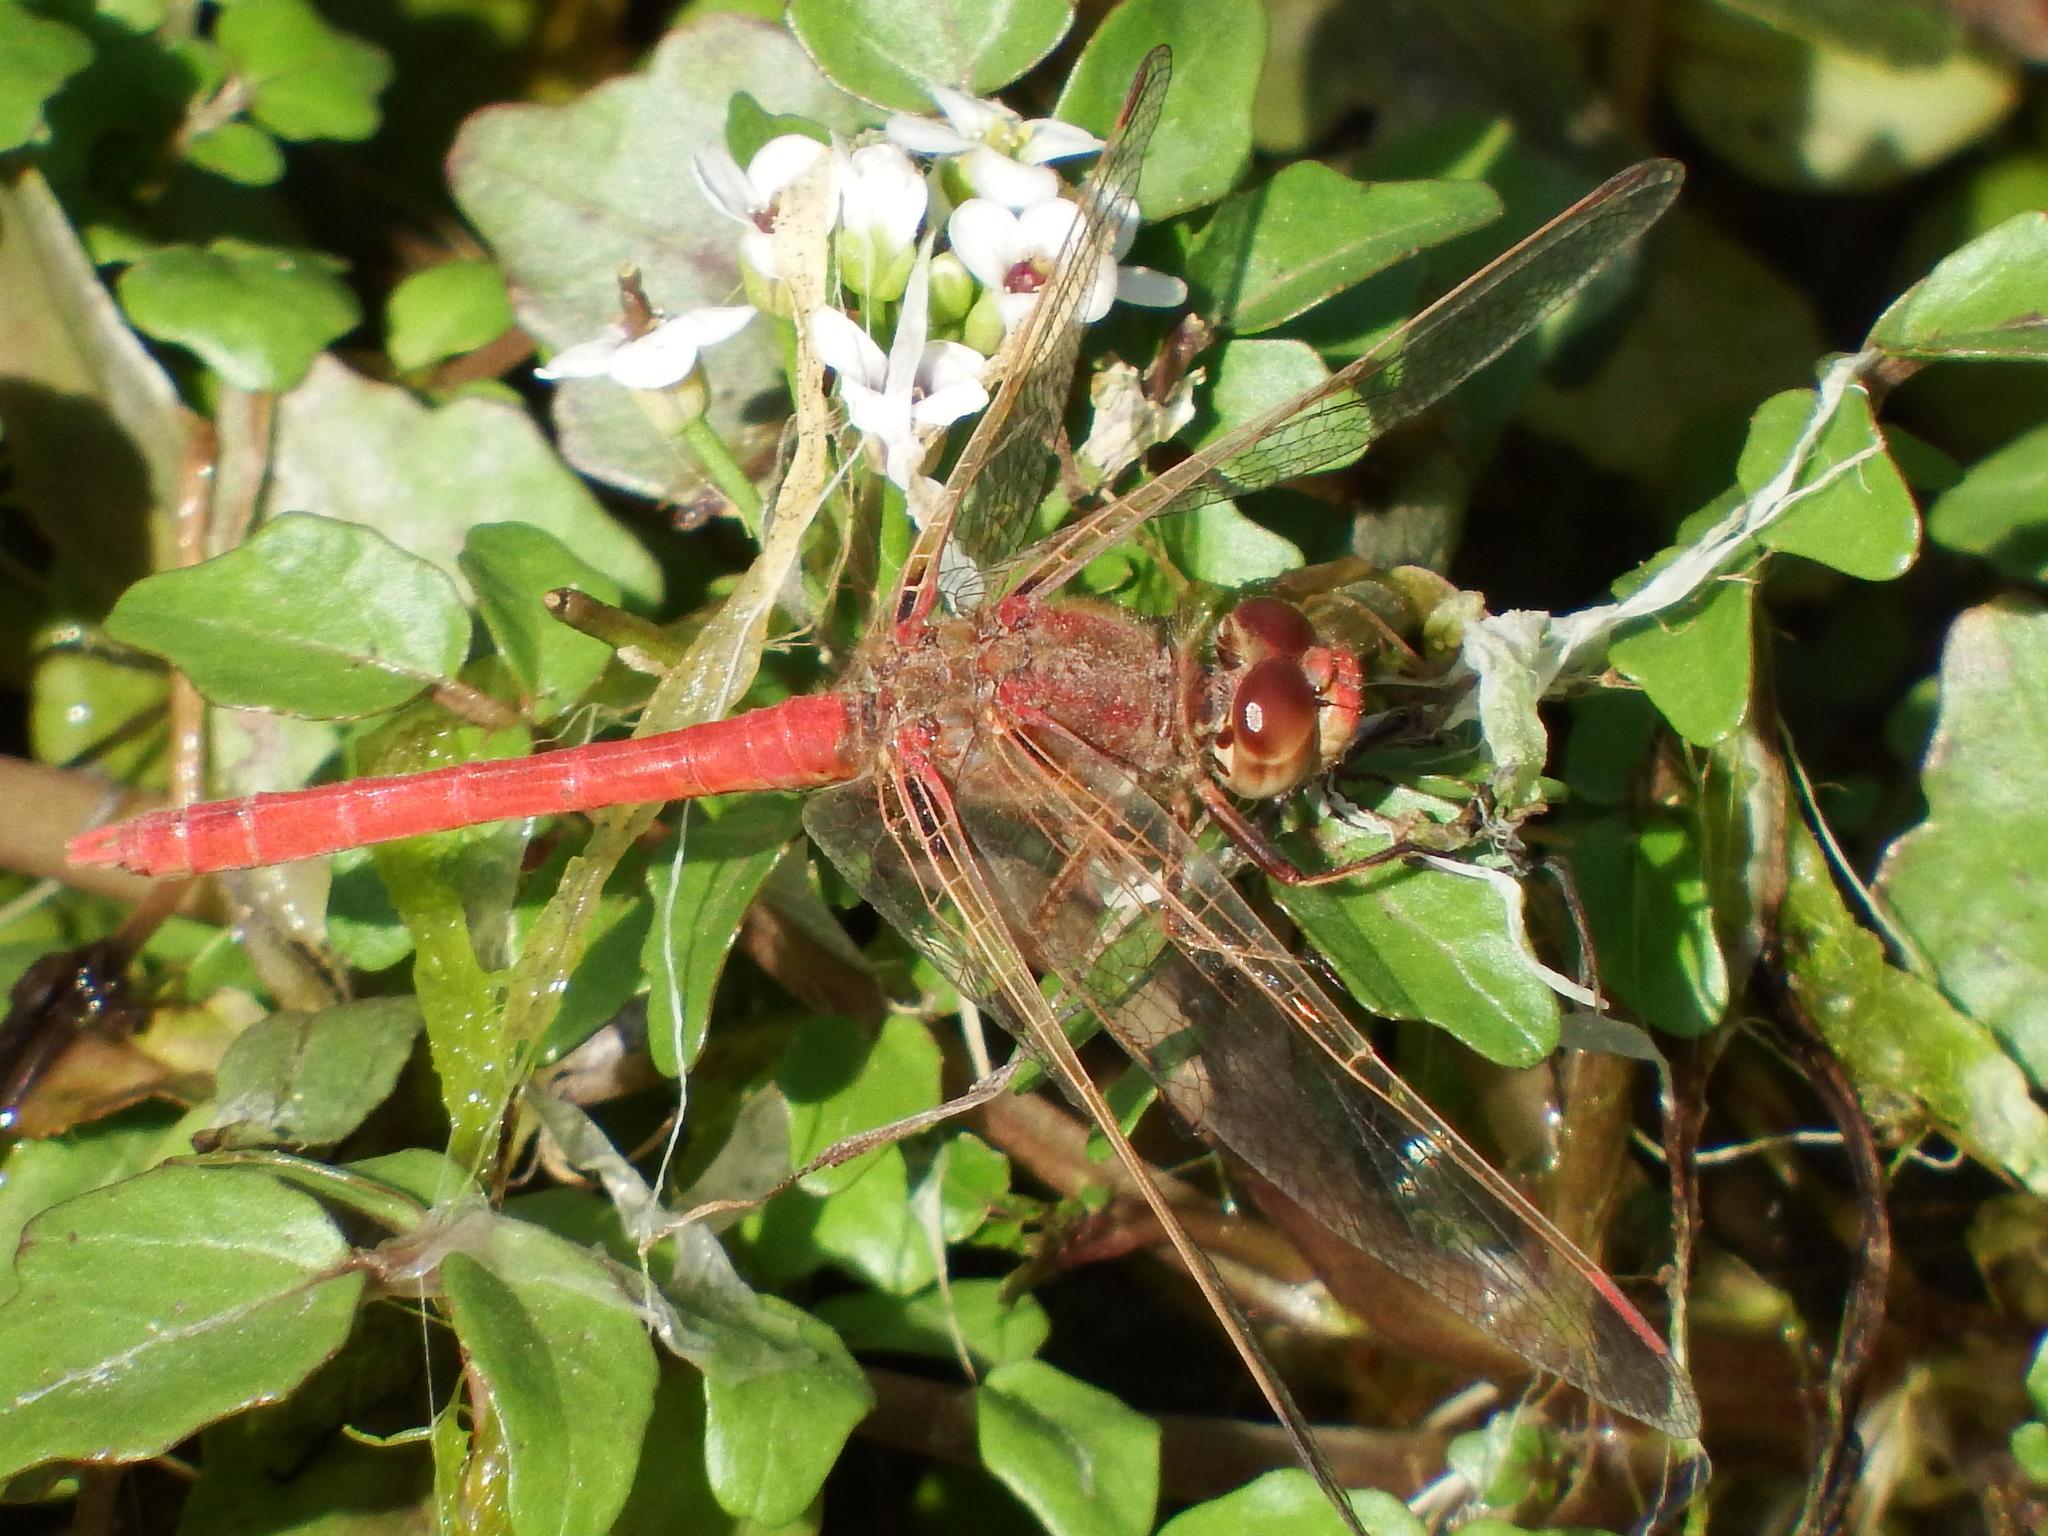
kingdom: Animalia
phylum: Arthropoda
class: Insecta
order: Odonata
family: Libellulidae
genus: Sympetrum
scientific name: Sympetrum gilvum
